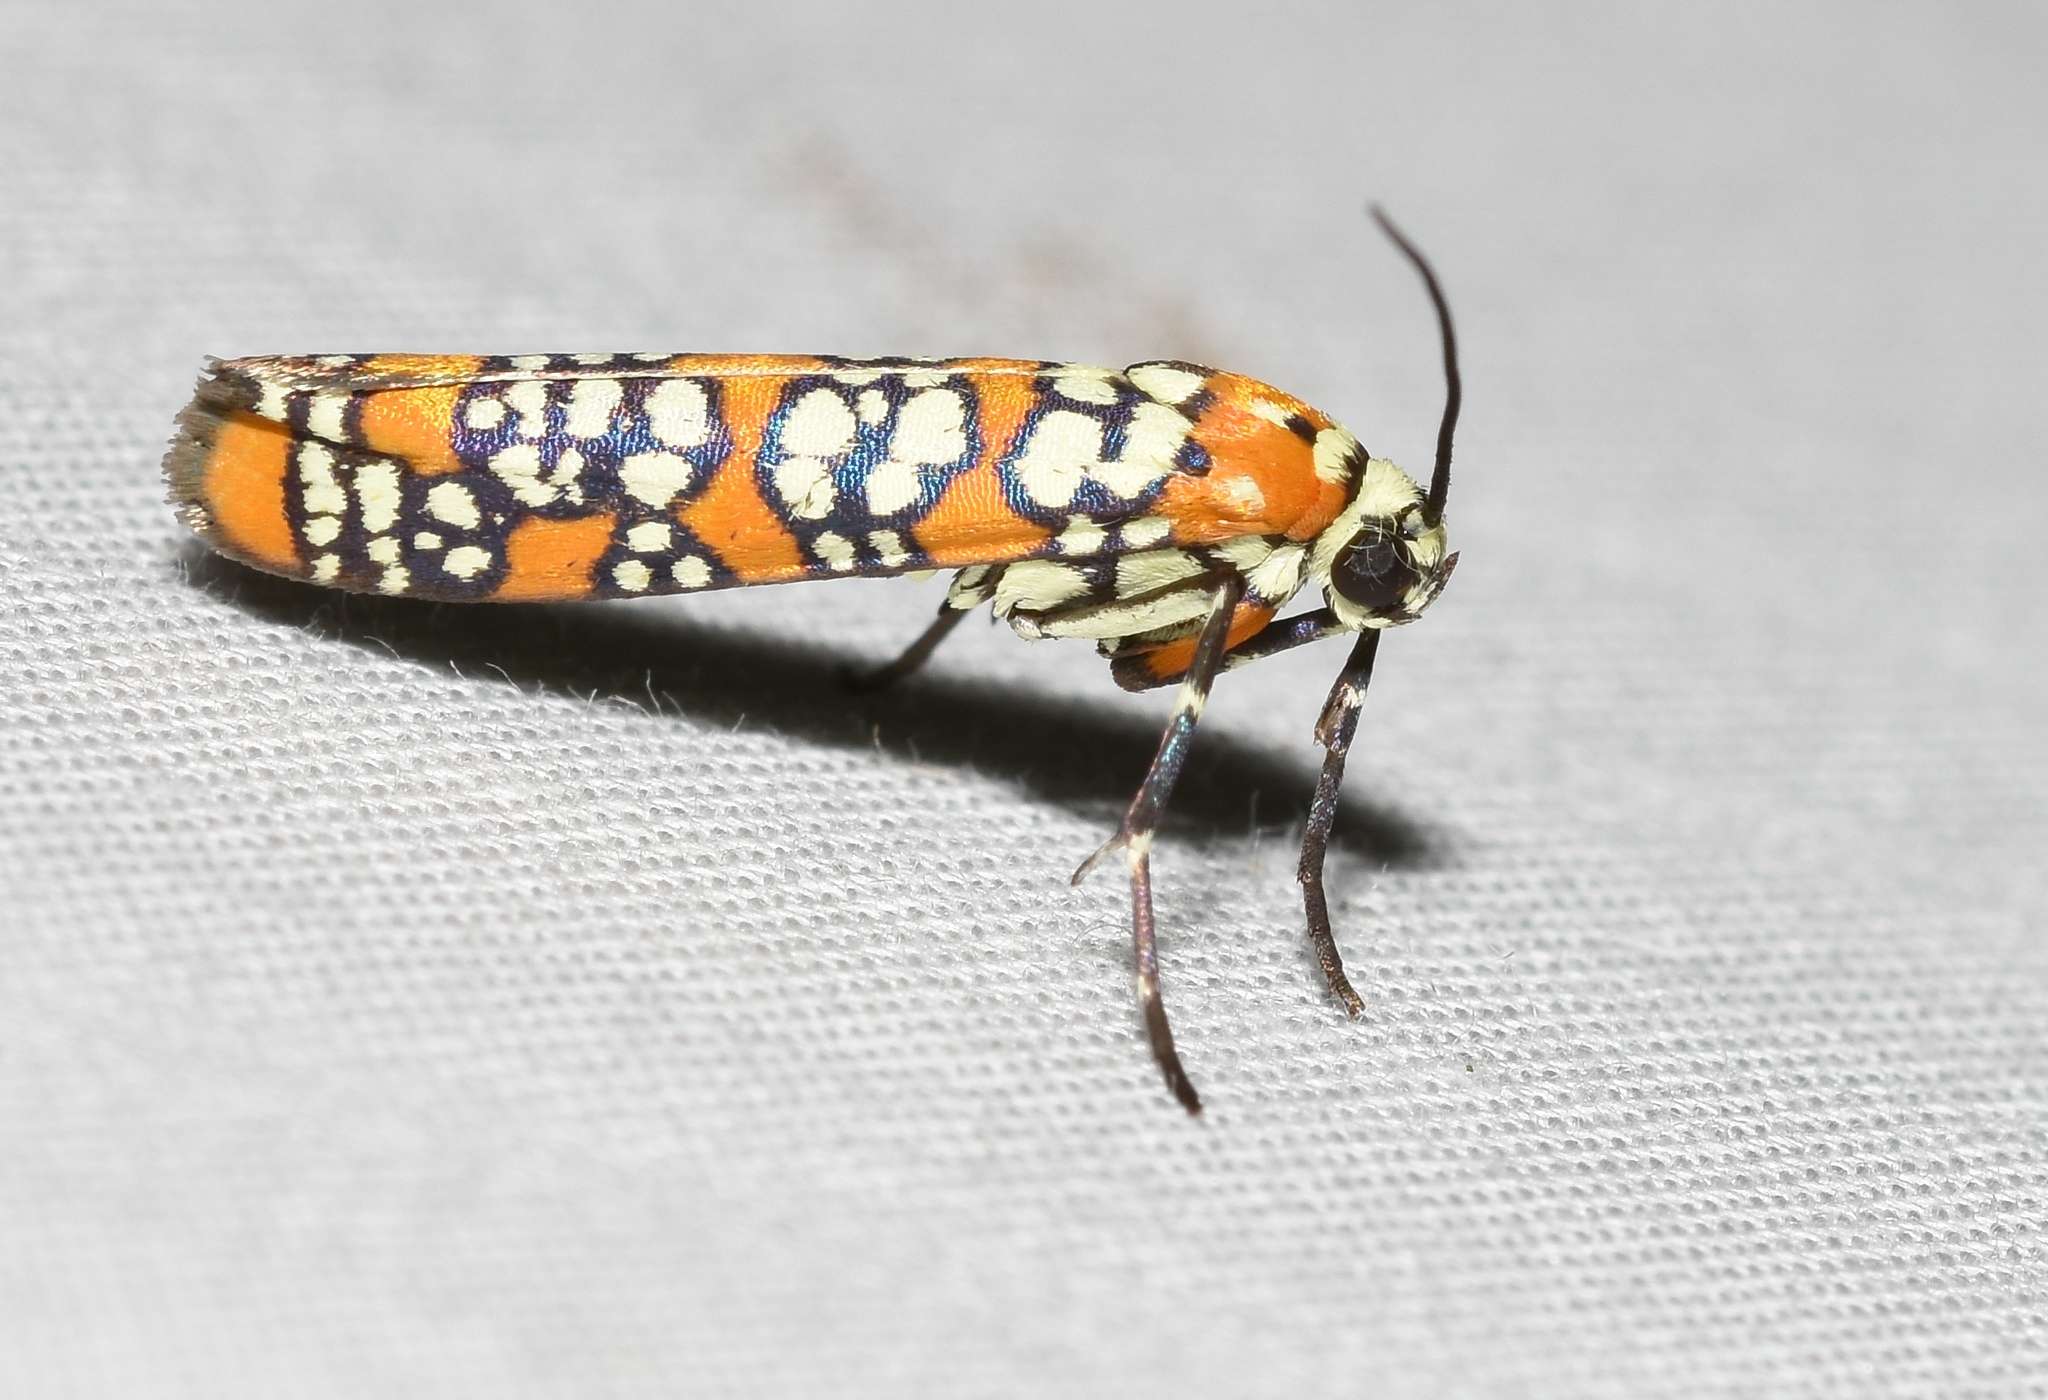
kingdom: Animalia
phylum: Arthropoda
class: Insecta
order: Lepidoptera
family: Attevidae
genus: Atteva
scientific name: Atteva punctella
